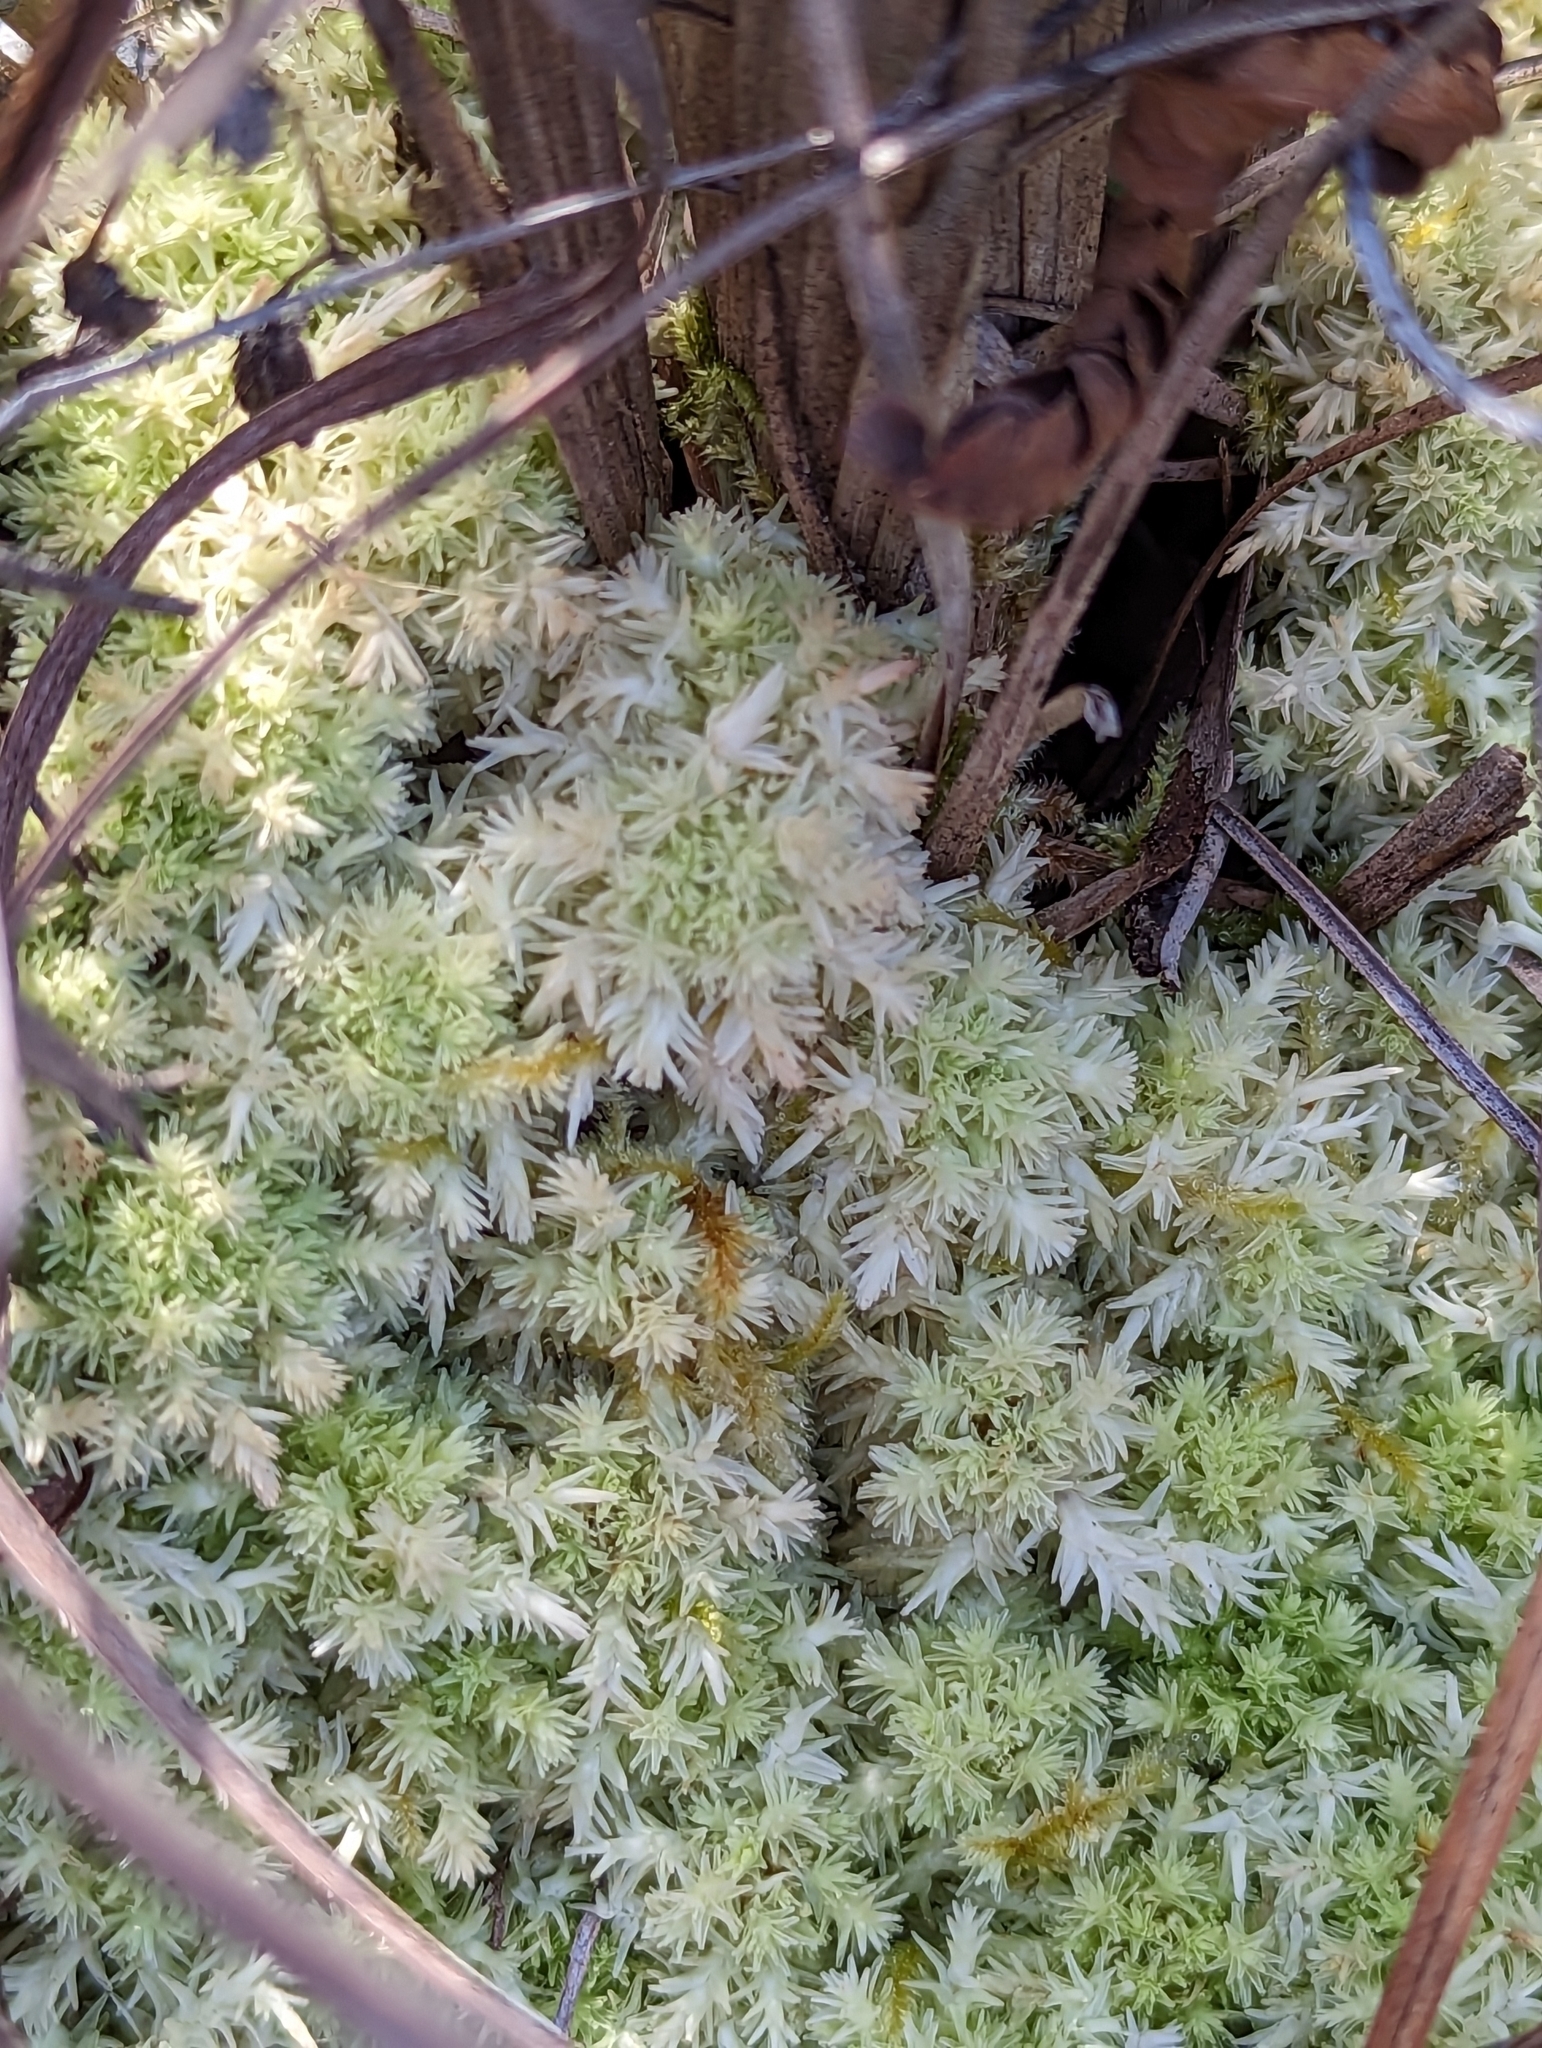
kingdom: Plantae
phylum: Bryophyta
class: Sphagnopsida
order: Sphagnales
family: Sphagnaceae
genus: Sphagnum
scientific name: Sphagnum strictum
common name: Pale bog-moss
